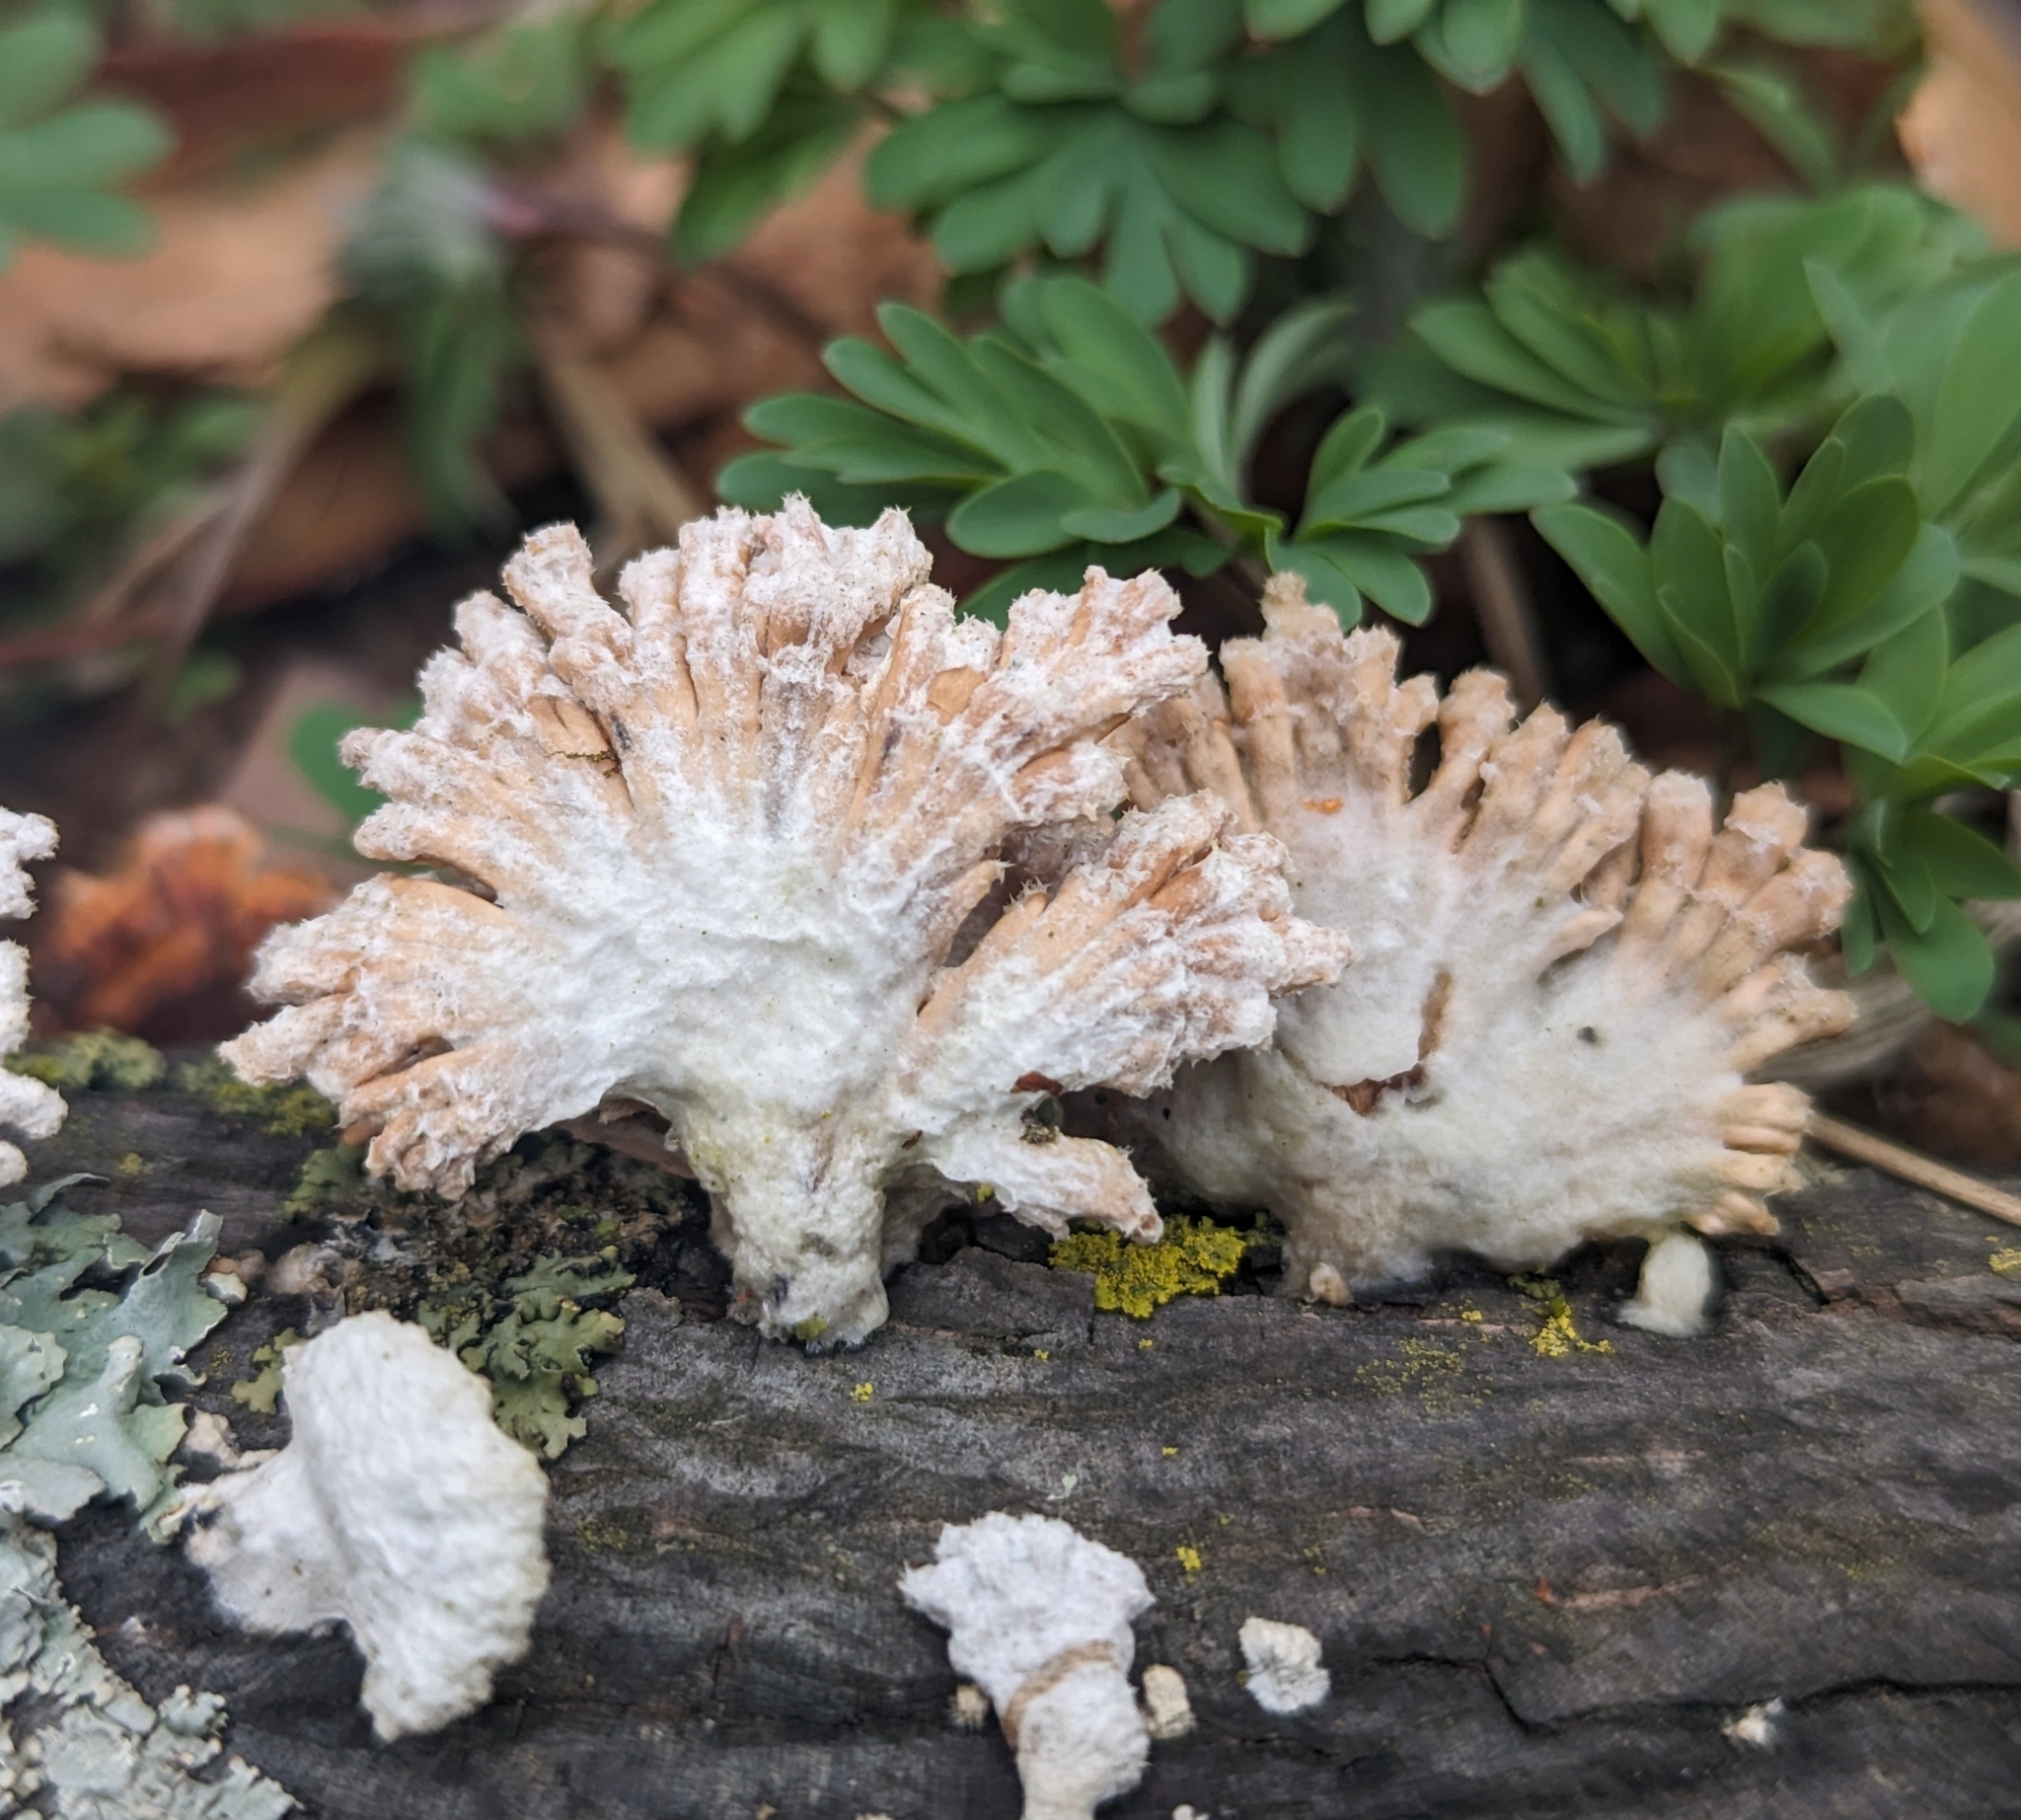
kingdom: Fungi
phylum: Basidiomycota
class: Agaricomycetes
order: Agaricales
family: Schizophyllaceae
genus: Schizophyllum
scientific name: Schizophyllum commune
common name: Common porecrust
